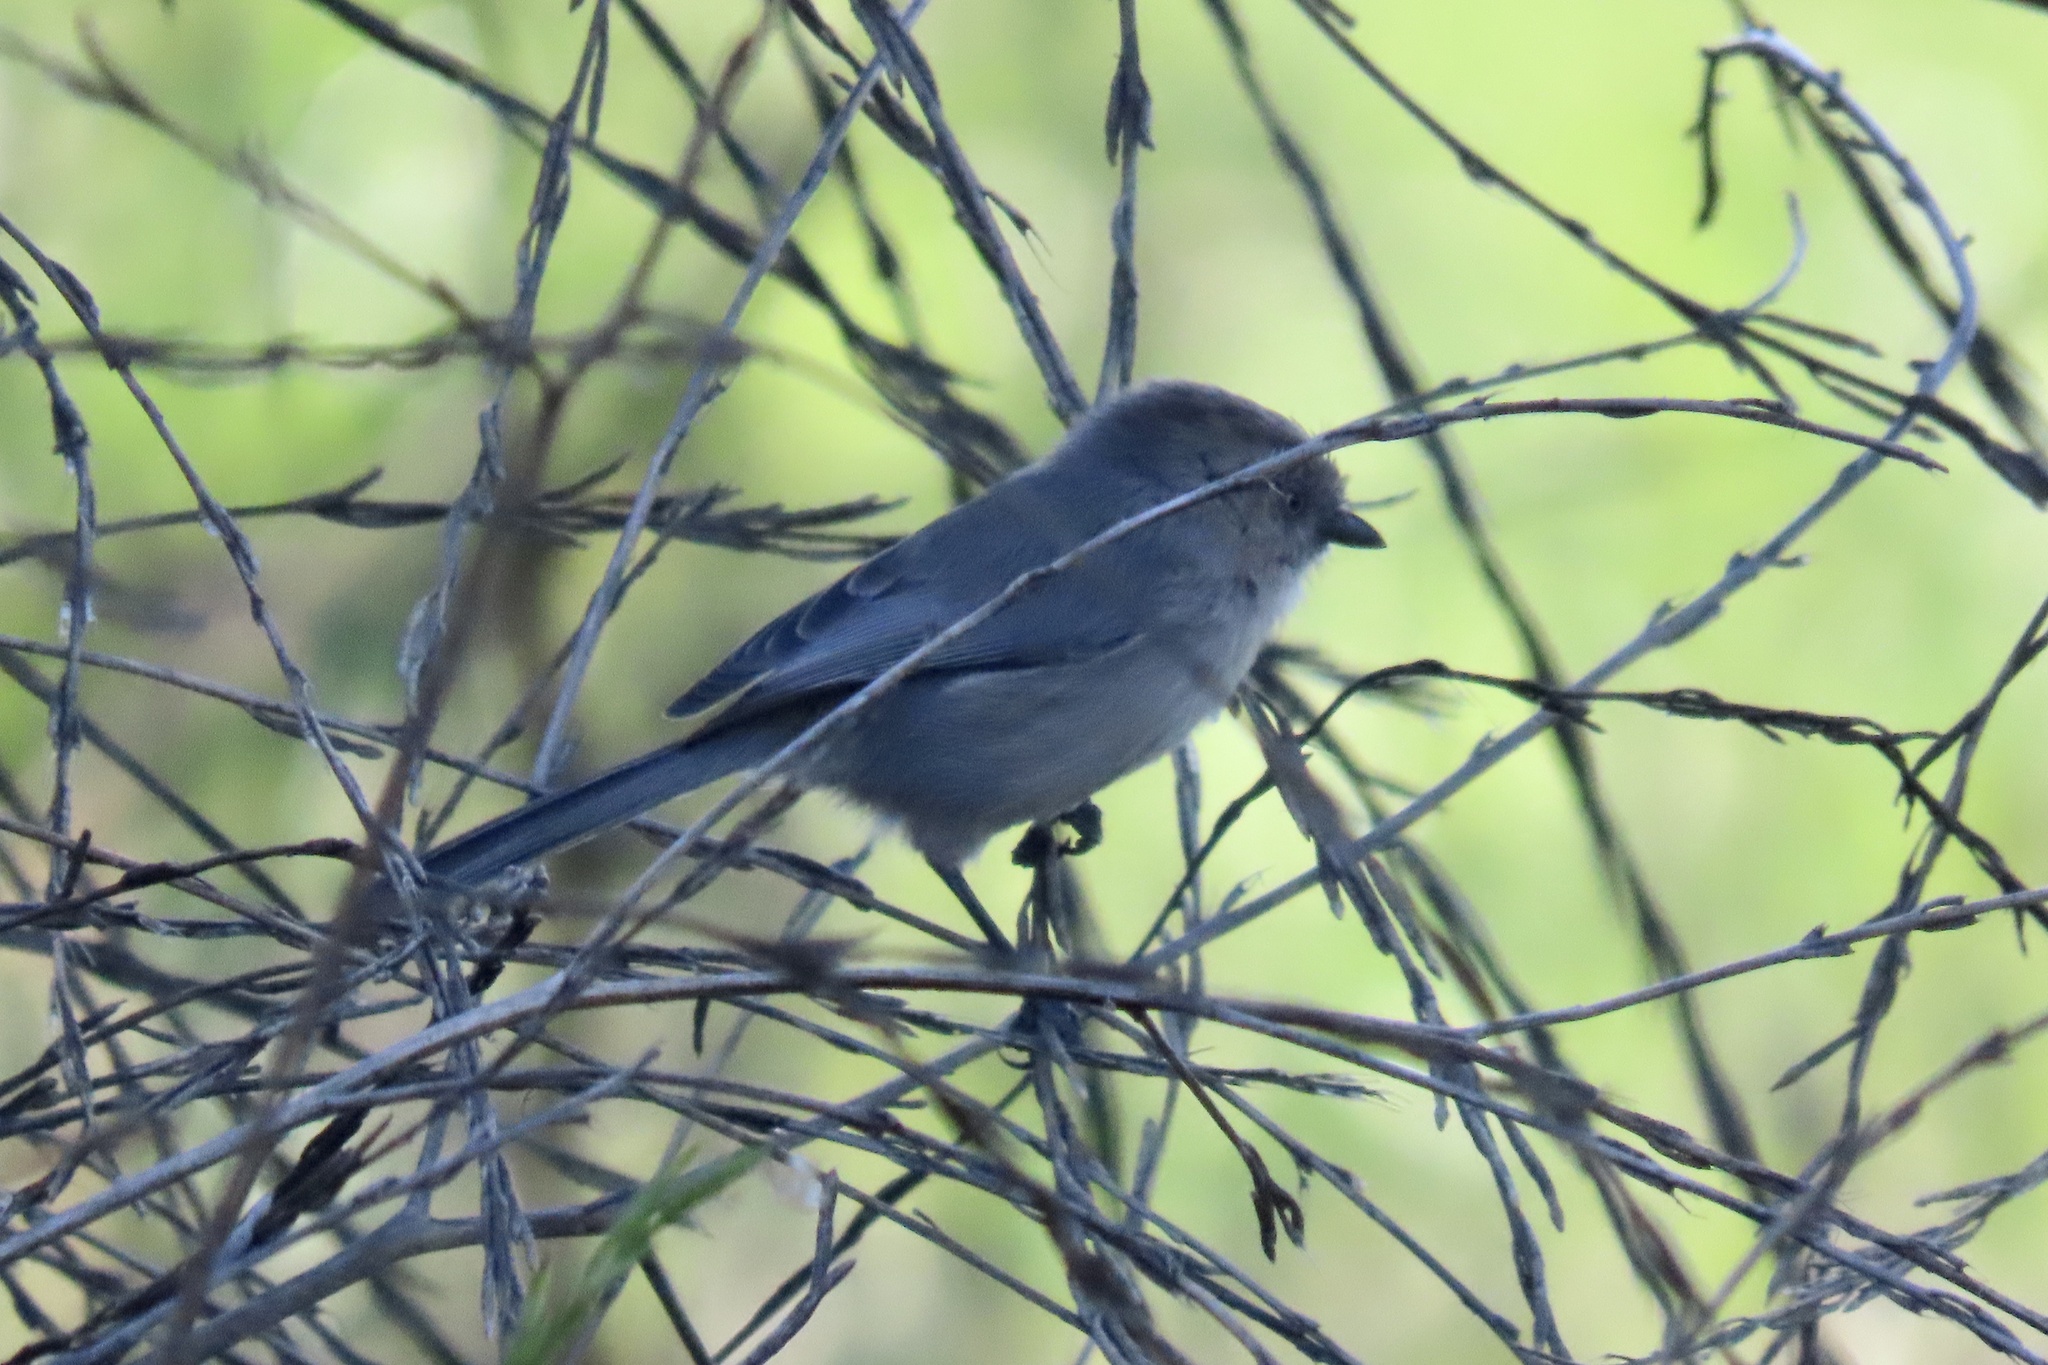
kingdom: Animalia
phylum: Chordata
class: Aves
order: Passeriformes
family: Aegithalidae
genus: Psaltriparus
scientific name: Psaltriparus minimus
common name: American bushtit
